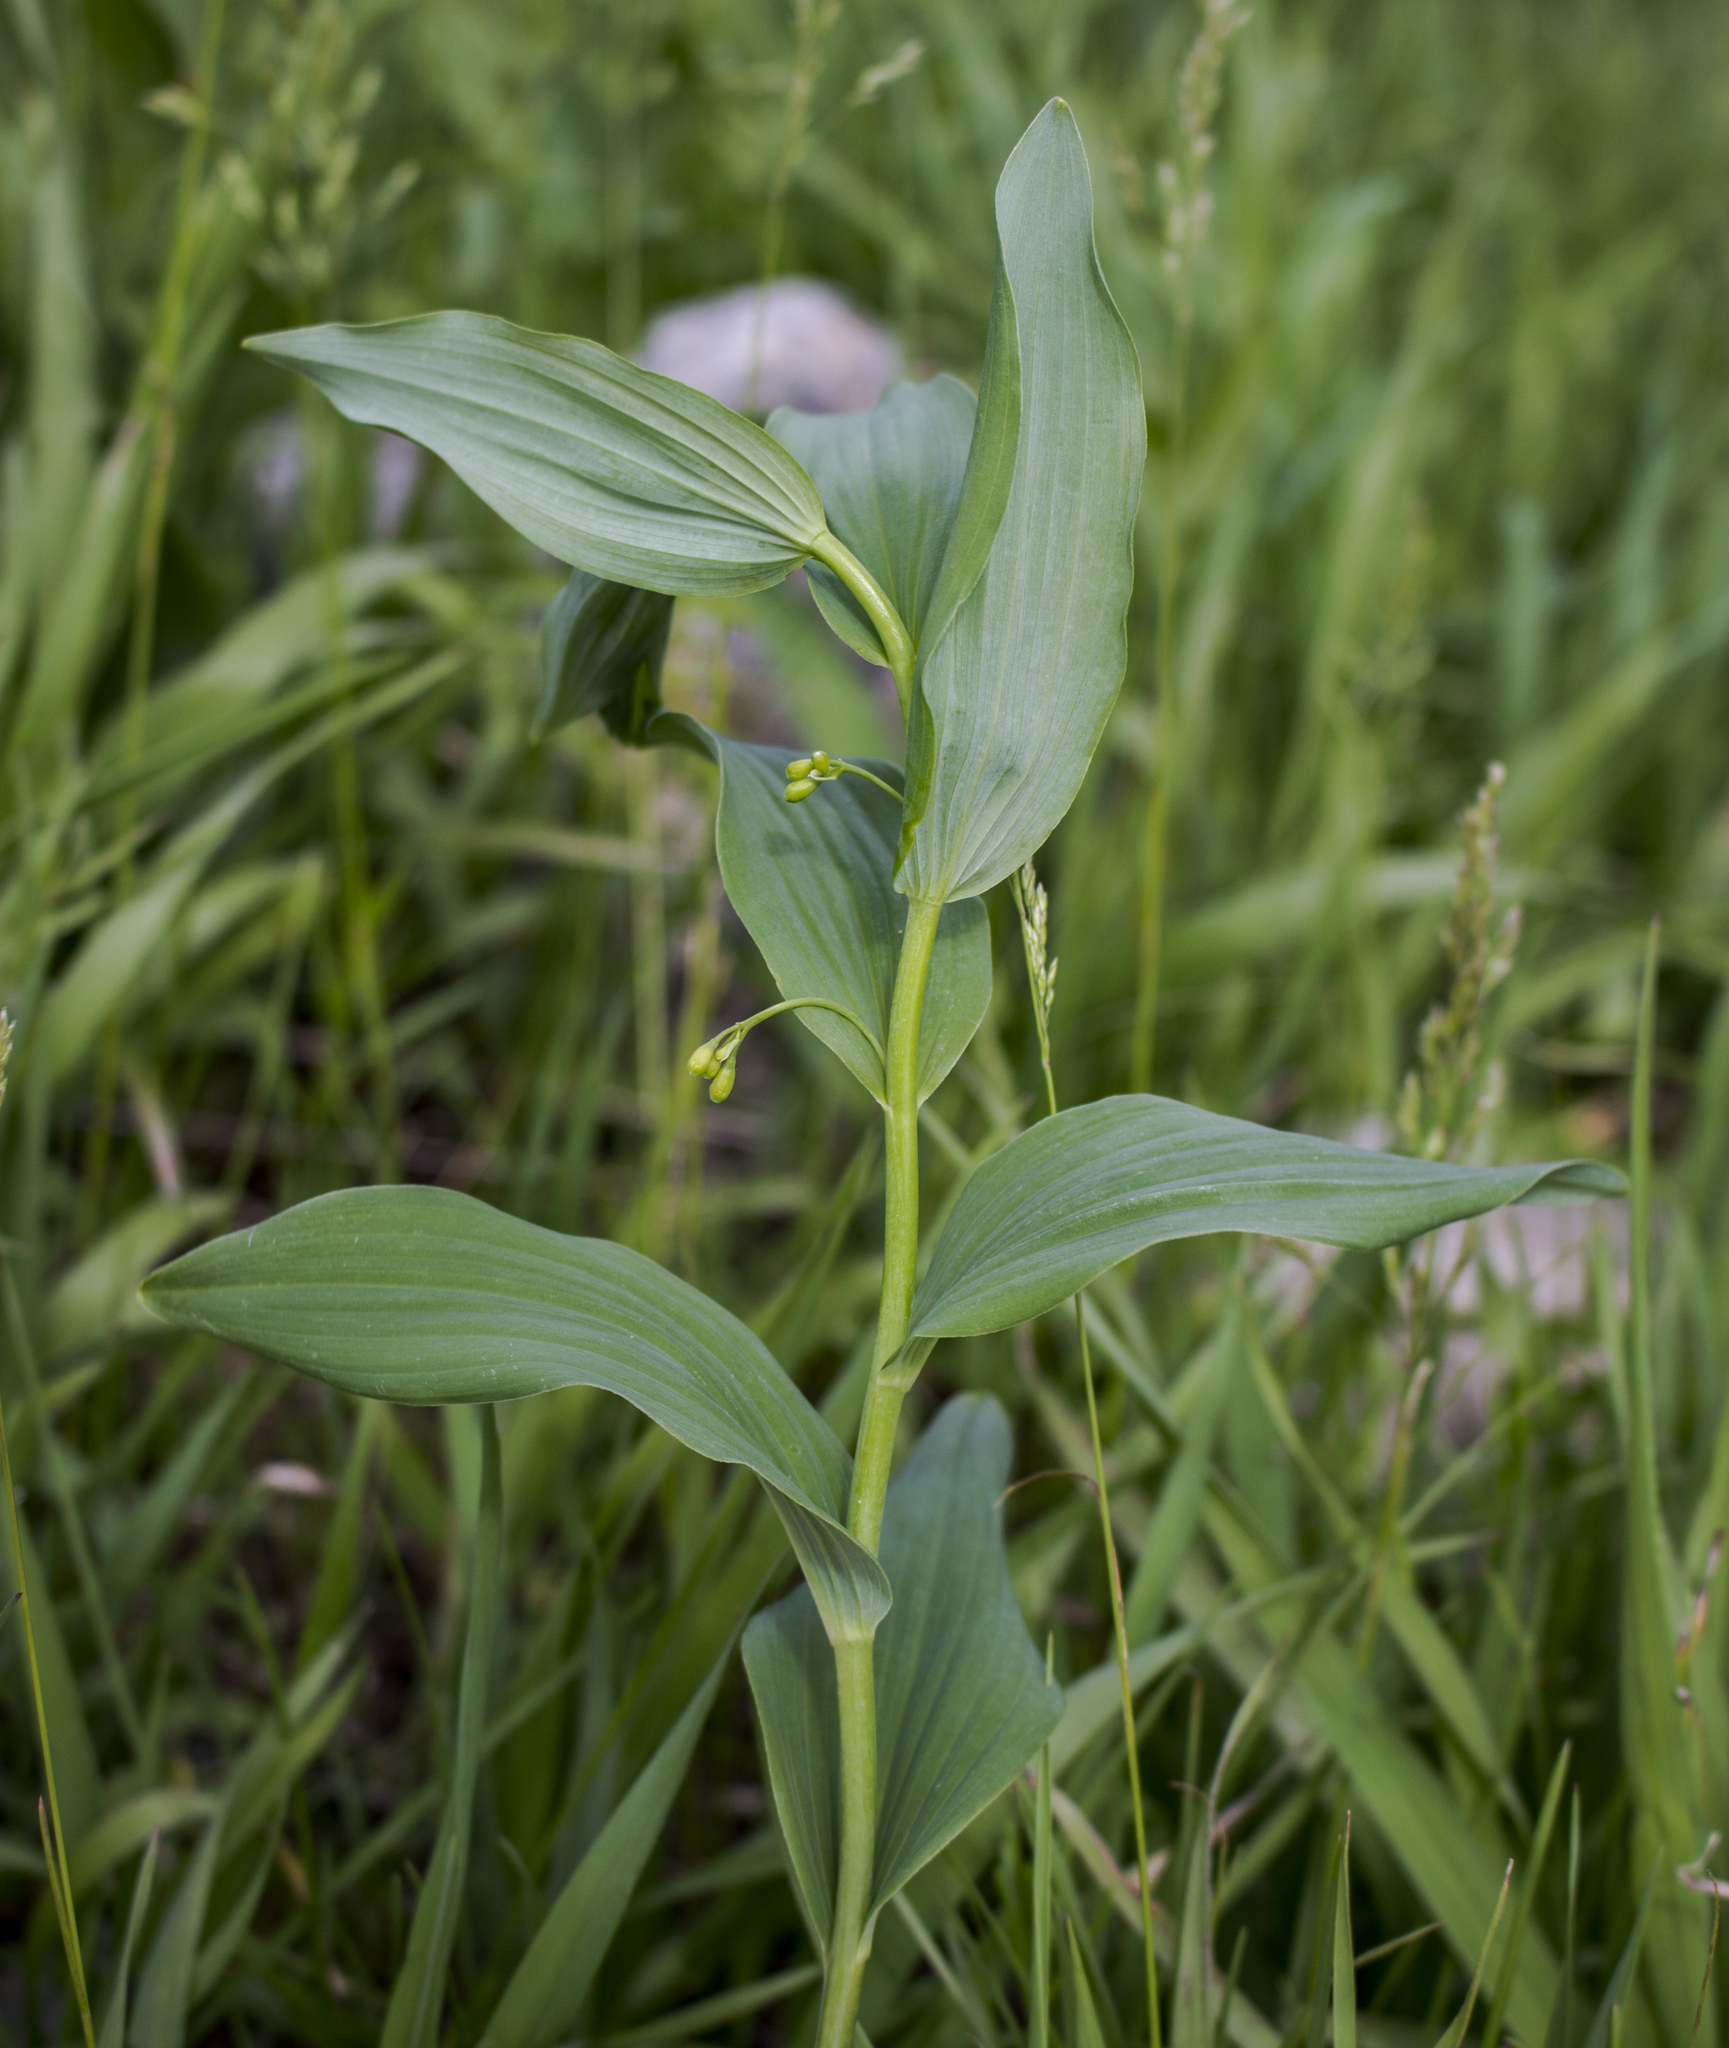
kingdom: Plantae
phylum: Tracheophyta
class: Liliopsida
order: Asparagales
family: Asparagaceae
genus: Polygonatum
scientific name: Polygonatum biflorum
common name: American solomon's-seal
